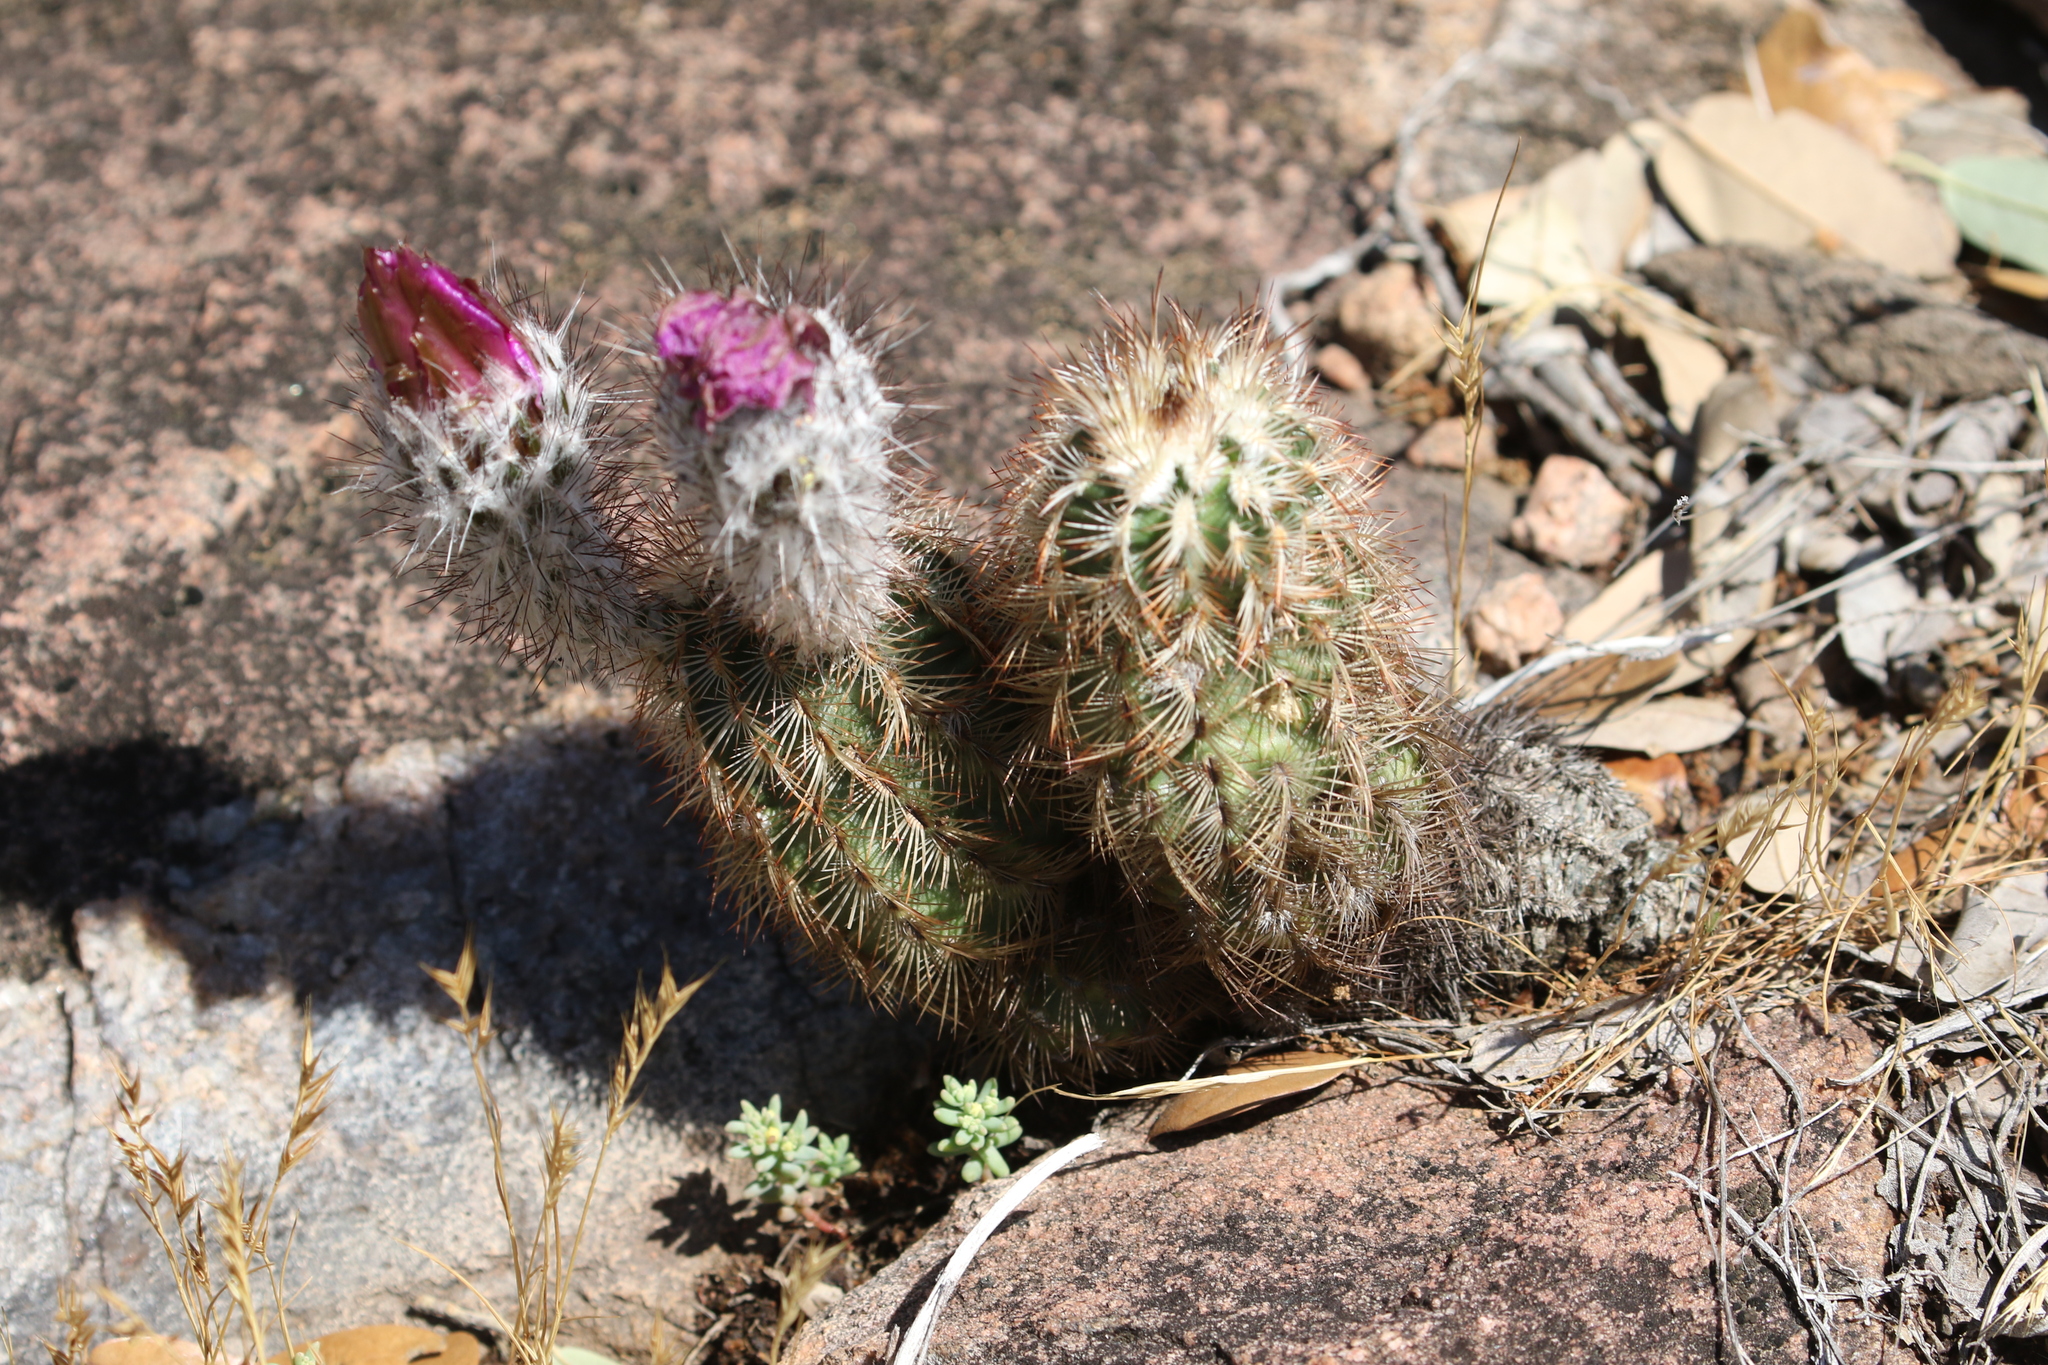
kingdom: Plantae
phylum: Tracheophyta
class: Magnoliopsida
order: Caryophyllales
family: Cactaceae
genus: Echinocereus
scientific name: Echinocereus reichenbachii
